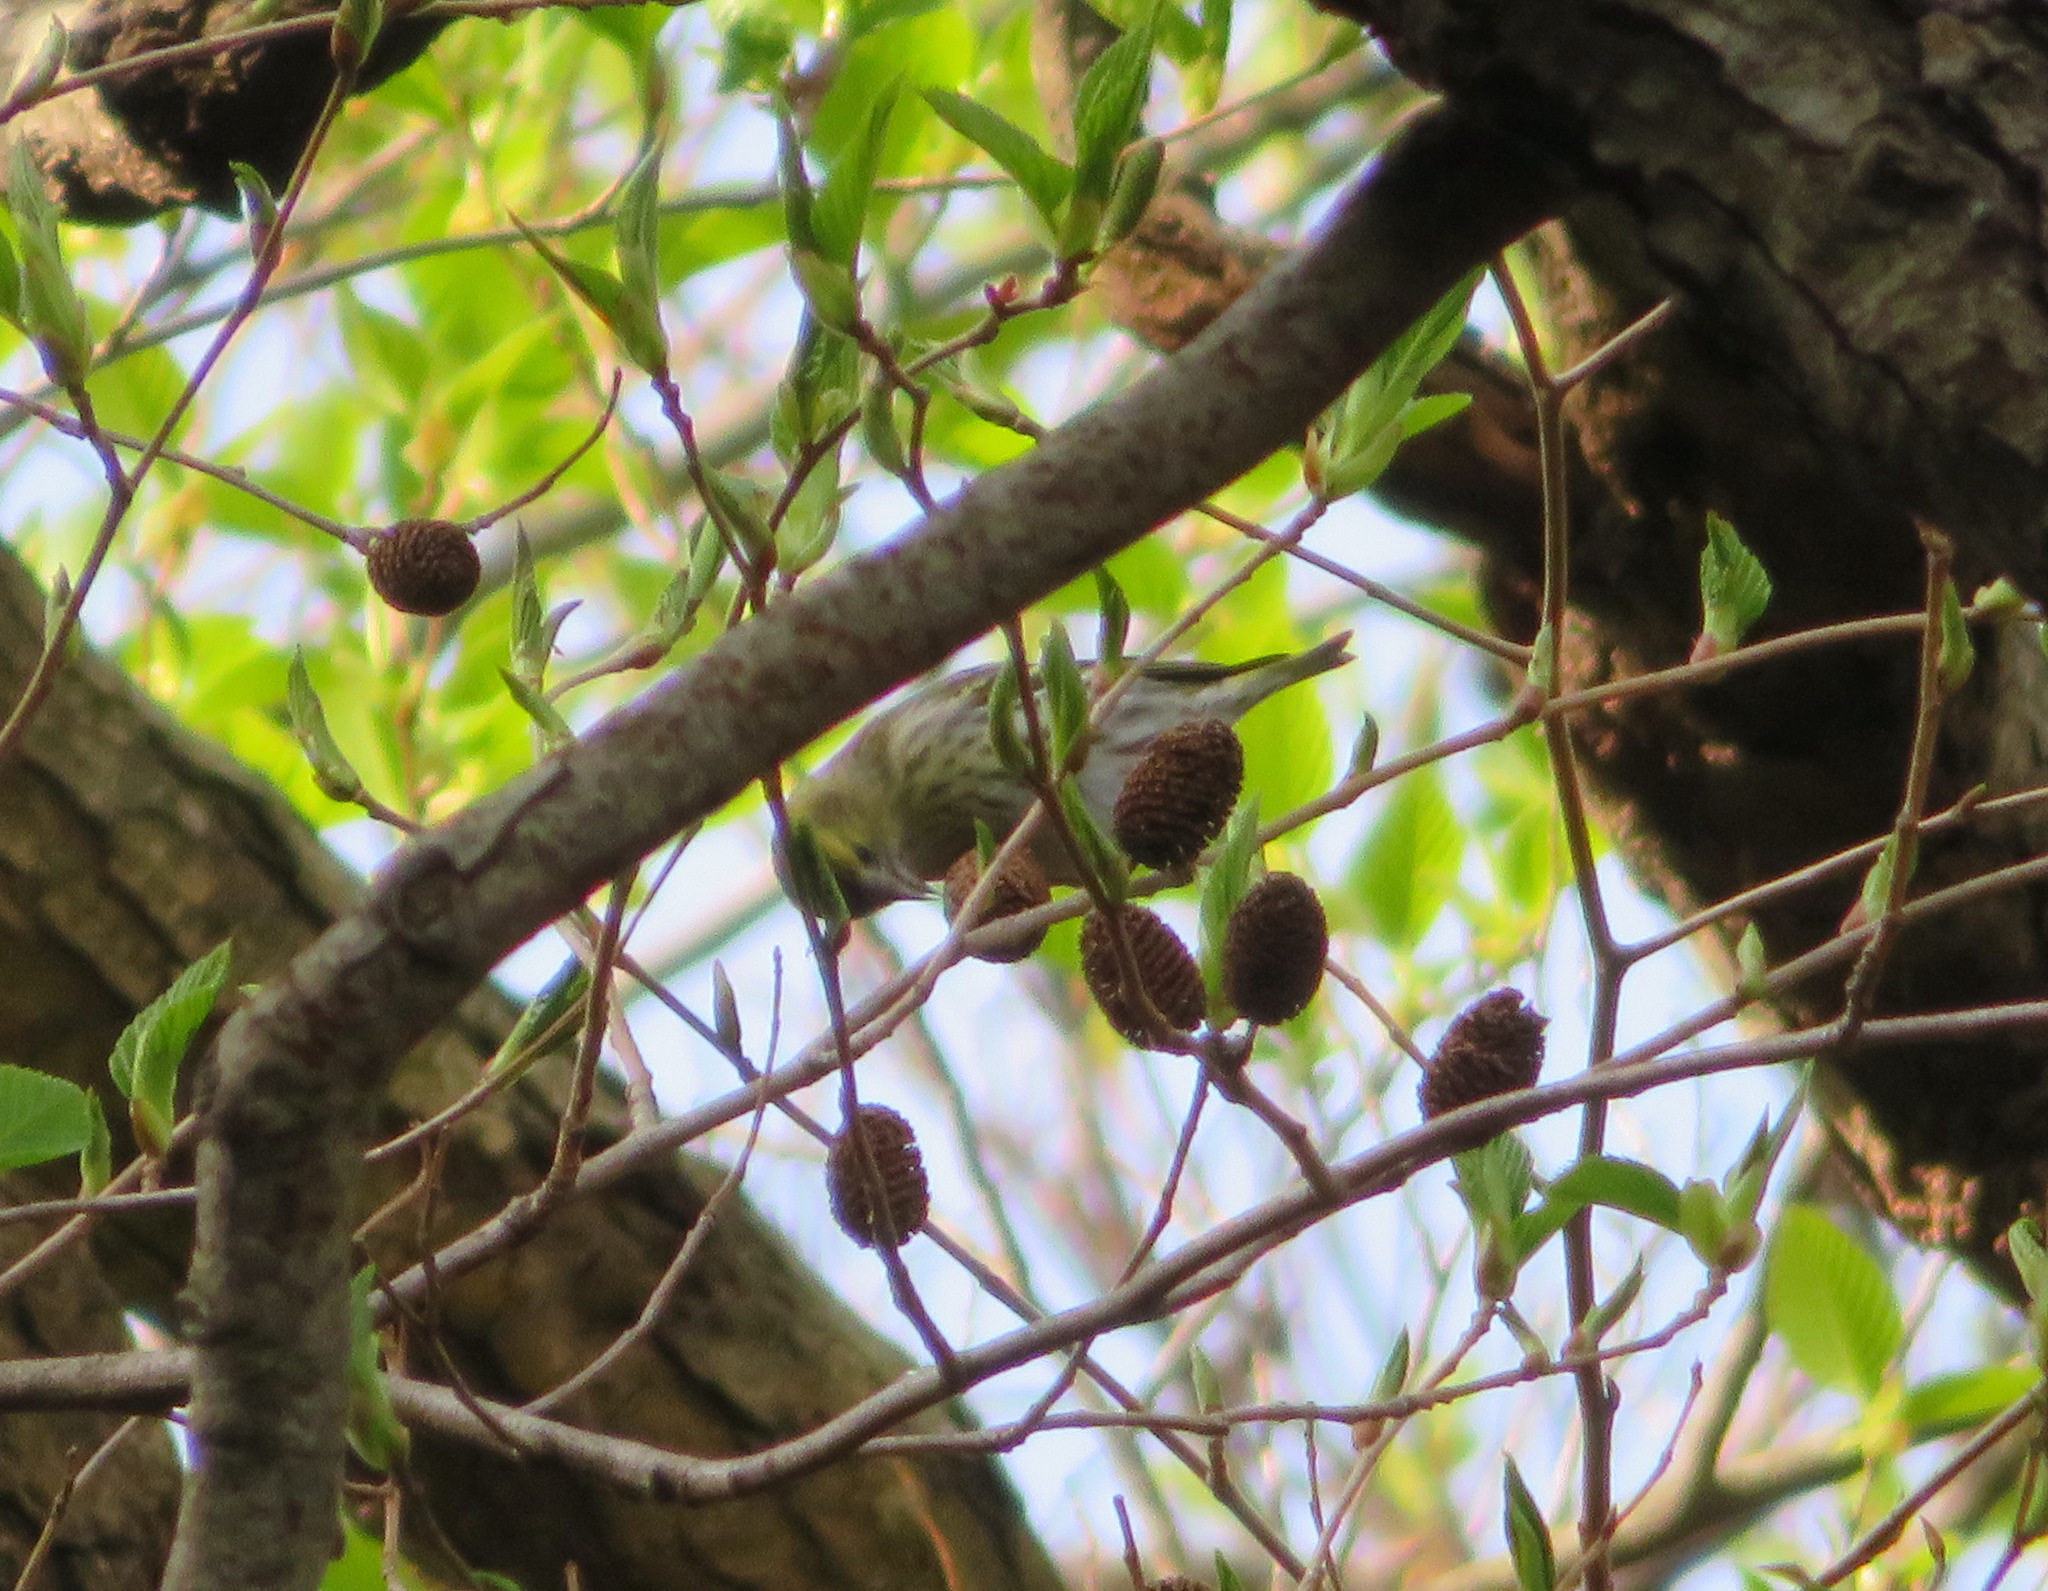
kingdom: Animalia
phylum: Chordata
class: Aves
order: Passeriformes
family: Fringillidae
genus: Spinus
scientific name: Spinus spinus
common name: Eurasian siskin
